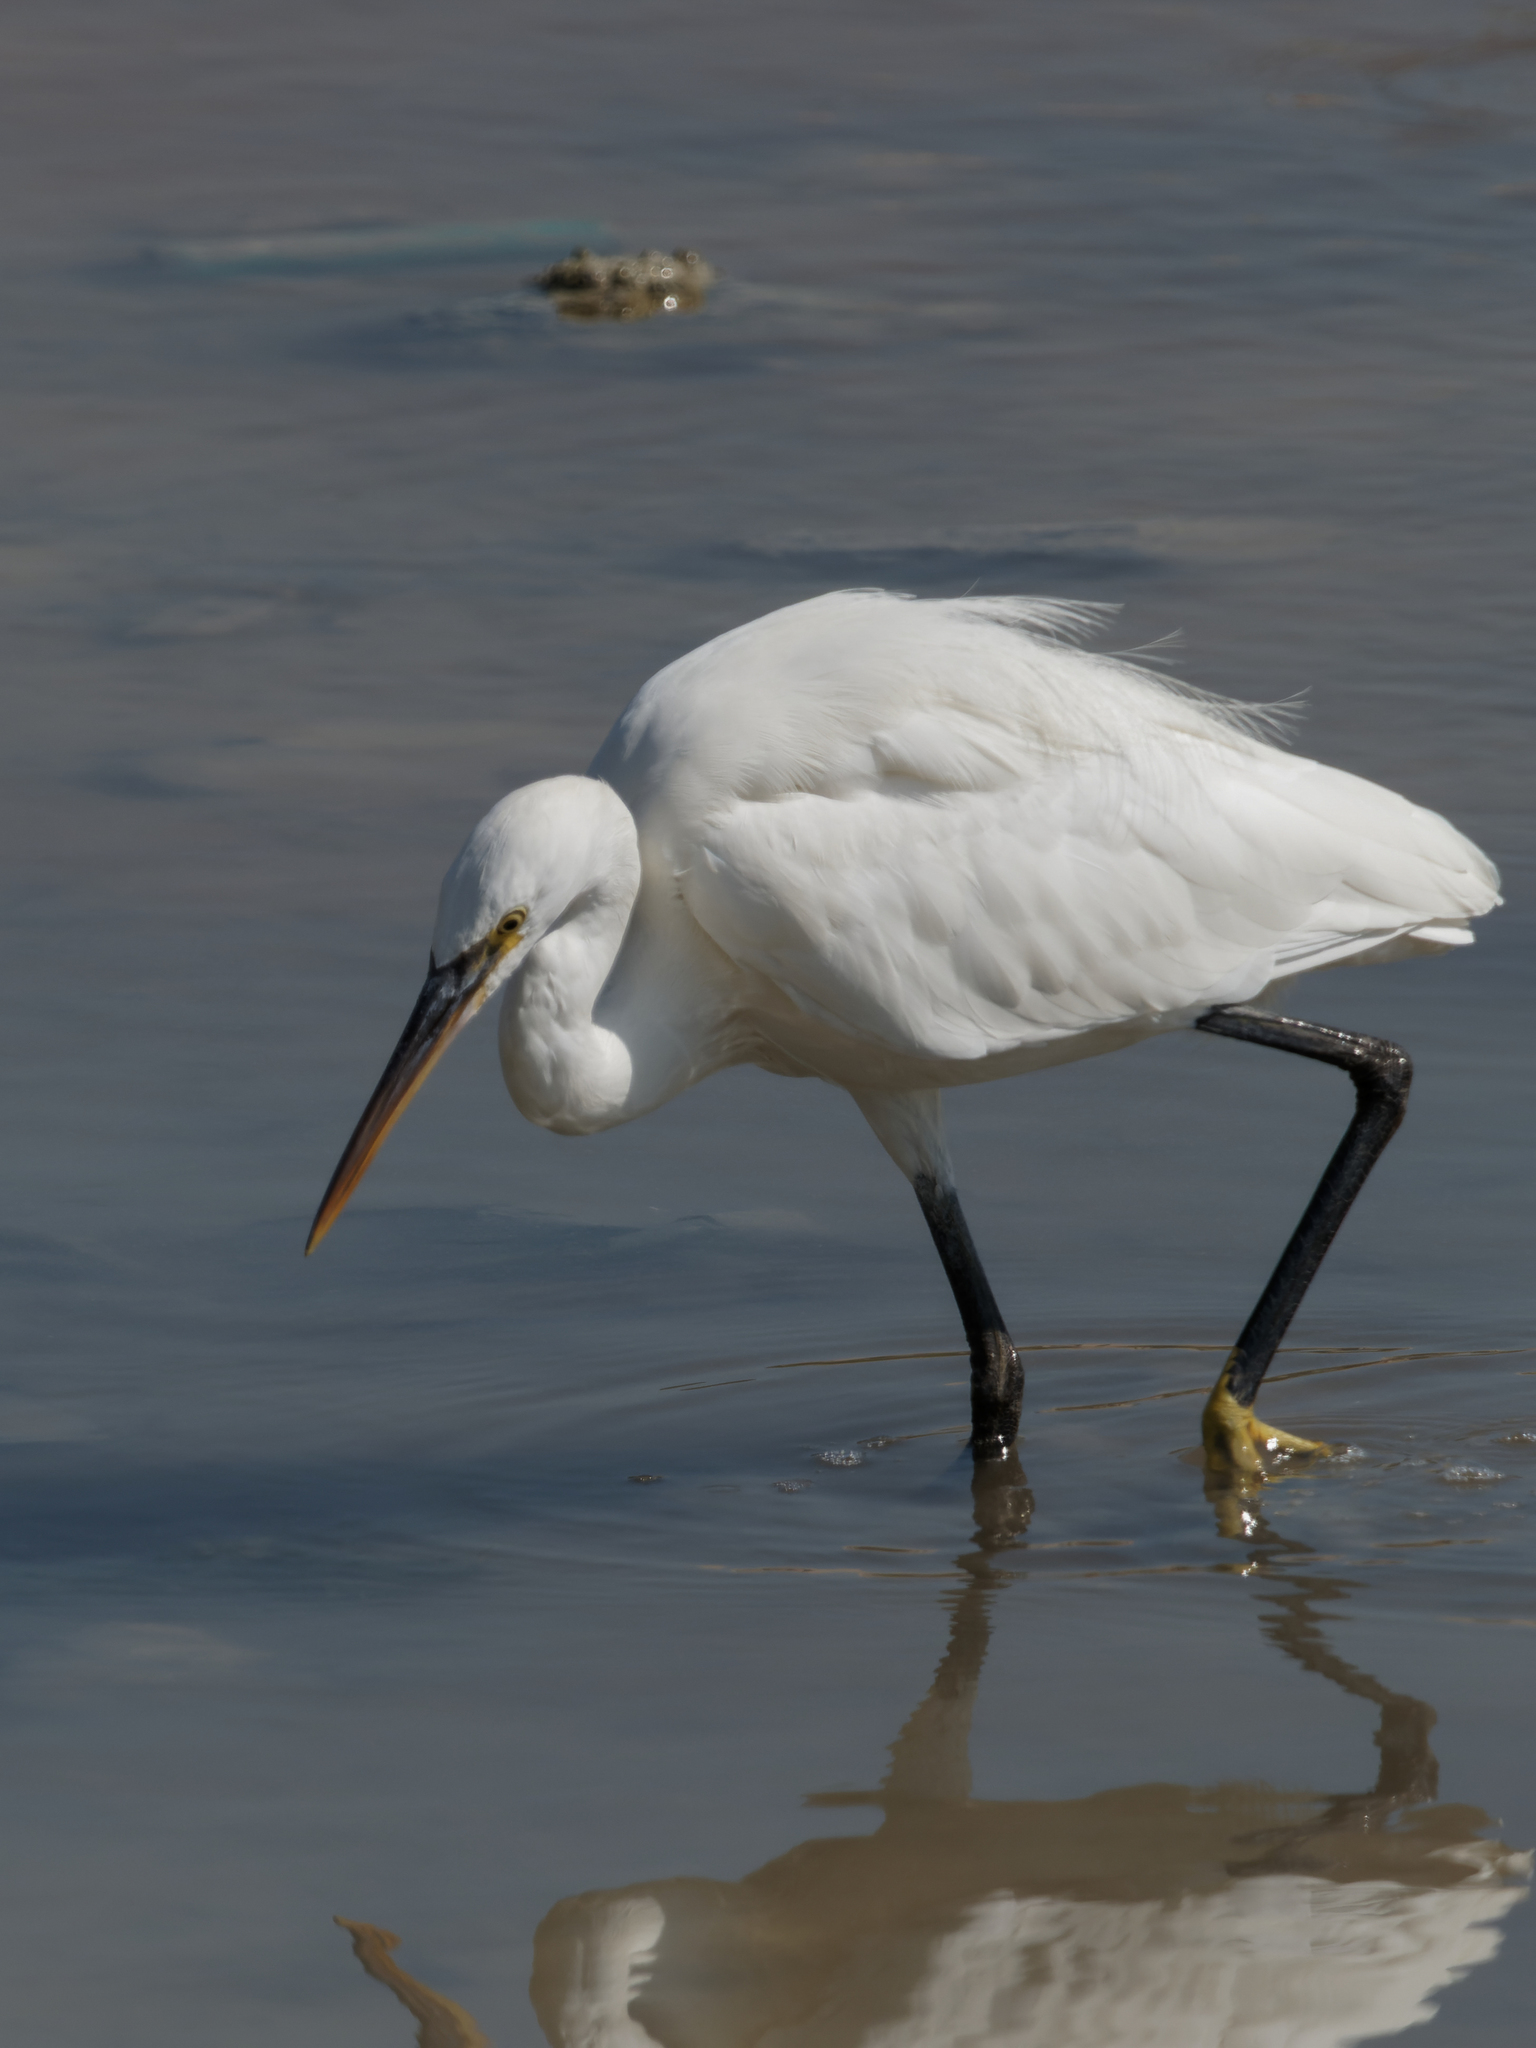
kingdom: Animalia
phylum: Chordata
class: Aves
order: Pelecaniformes
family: Ardeidae
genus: Egretta
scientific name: Egretta gularis
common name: Western reef-heron
